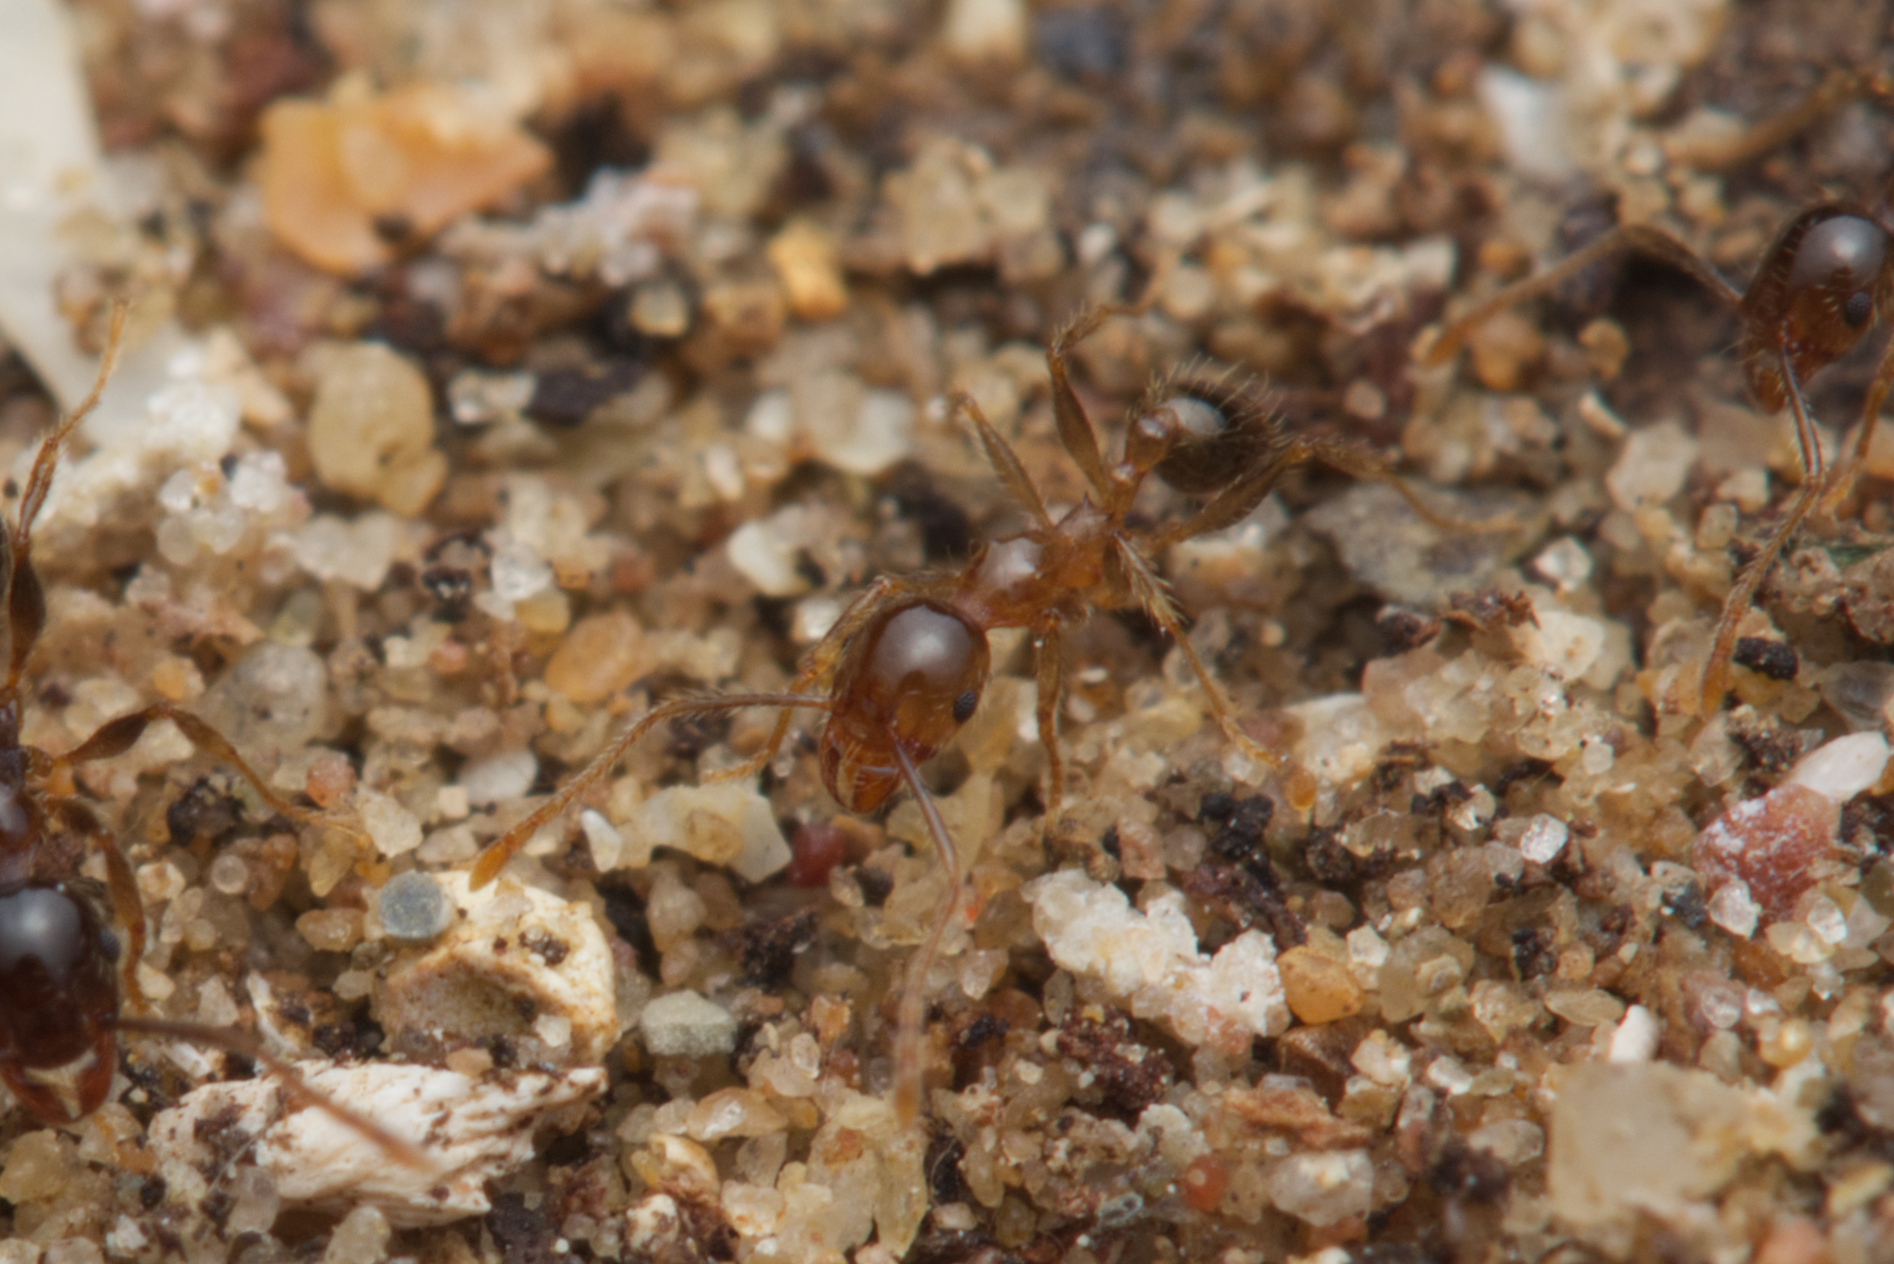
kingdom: Animalia
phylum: Arthropoda
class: Insecta
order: Hymenoptera
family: Formicidae
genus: Pheidole
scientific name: Pheidole megacephala
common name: Bigheaded ant
